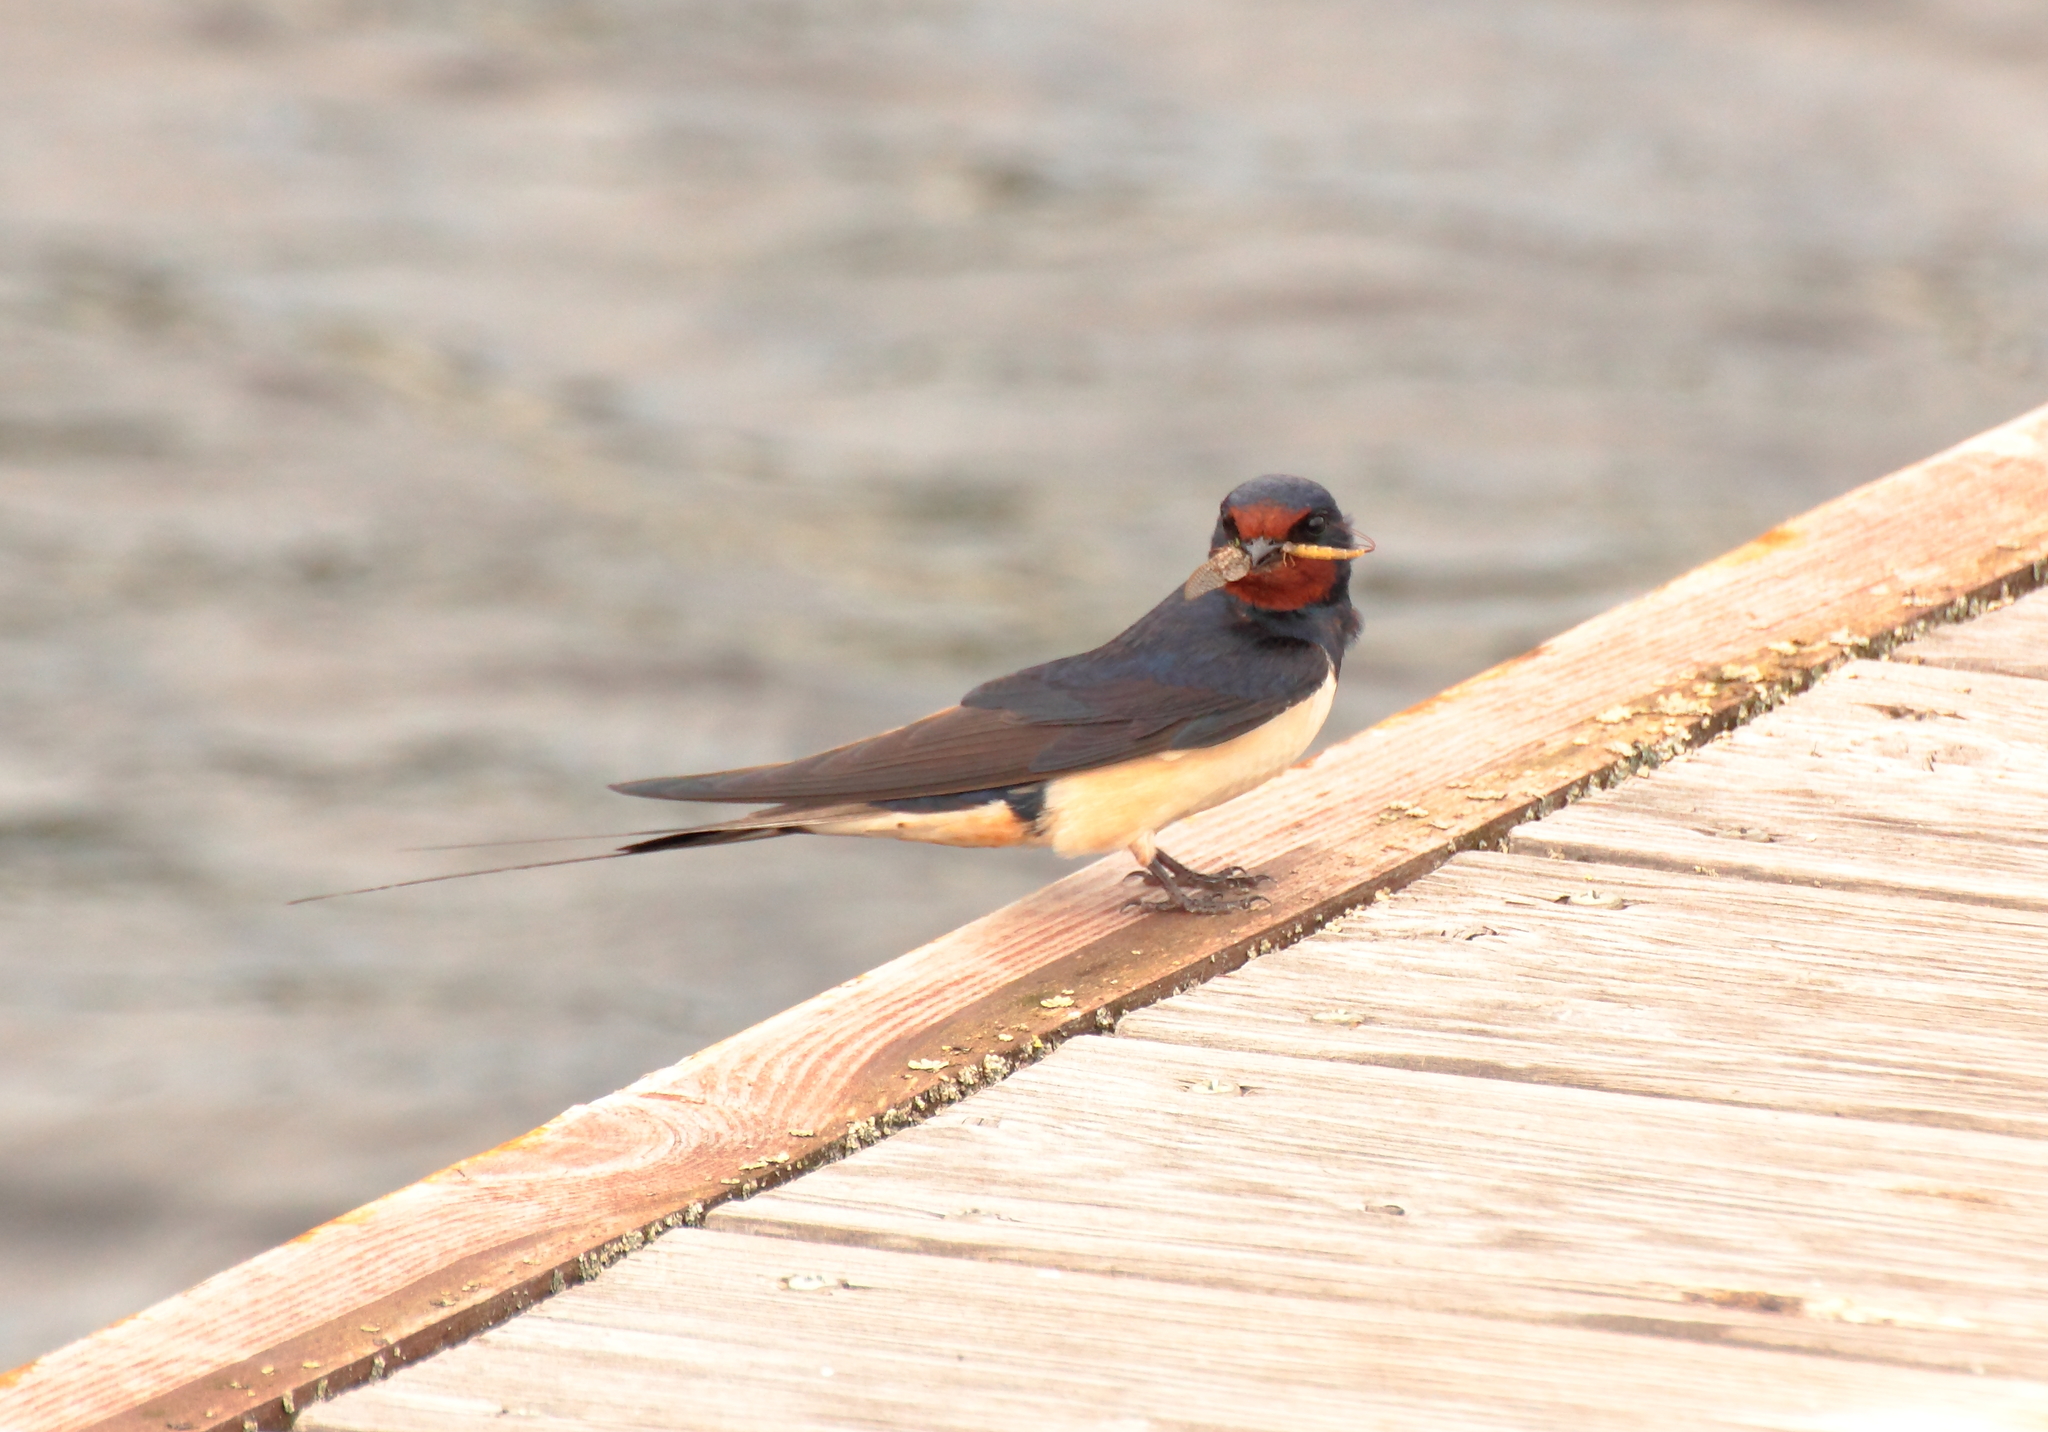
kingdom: Animalia
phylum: Chordata
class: Aves
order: Passeriformes
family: Hirundinidae
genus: Hirundo
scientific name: Hirundo rustica
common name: Barn swallow
